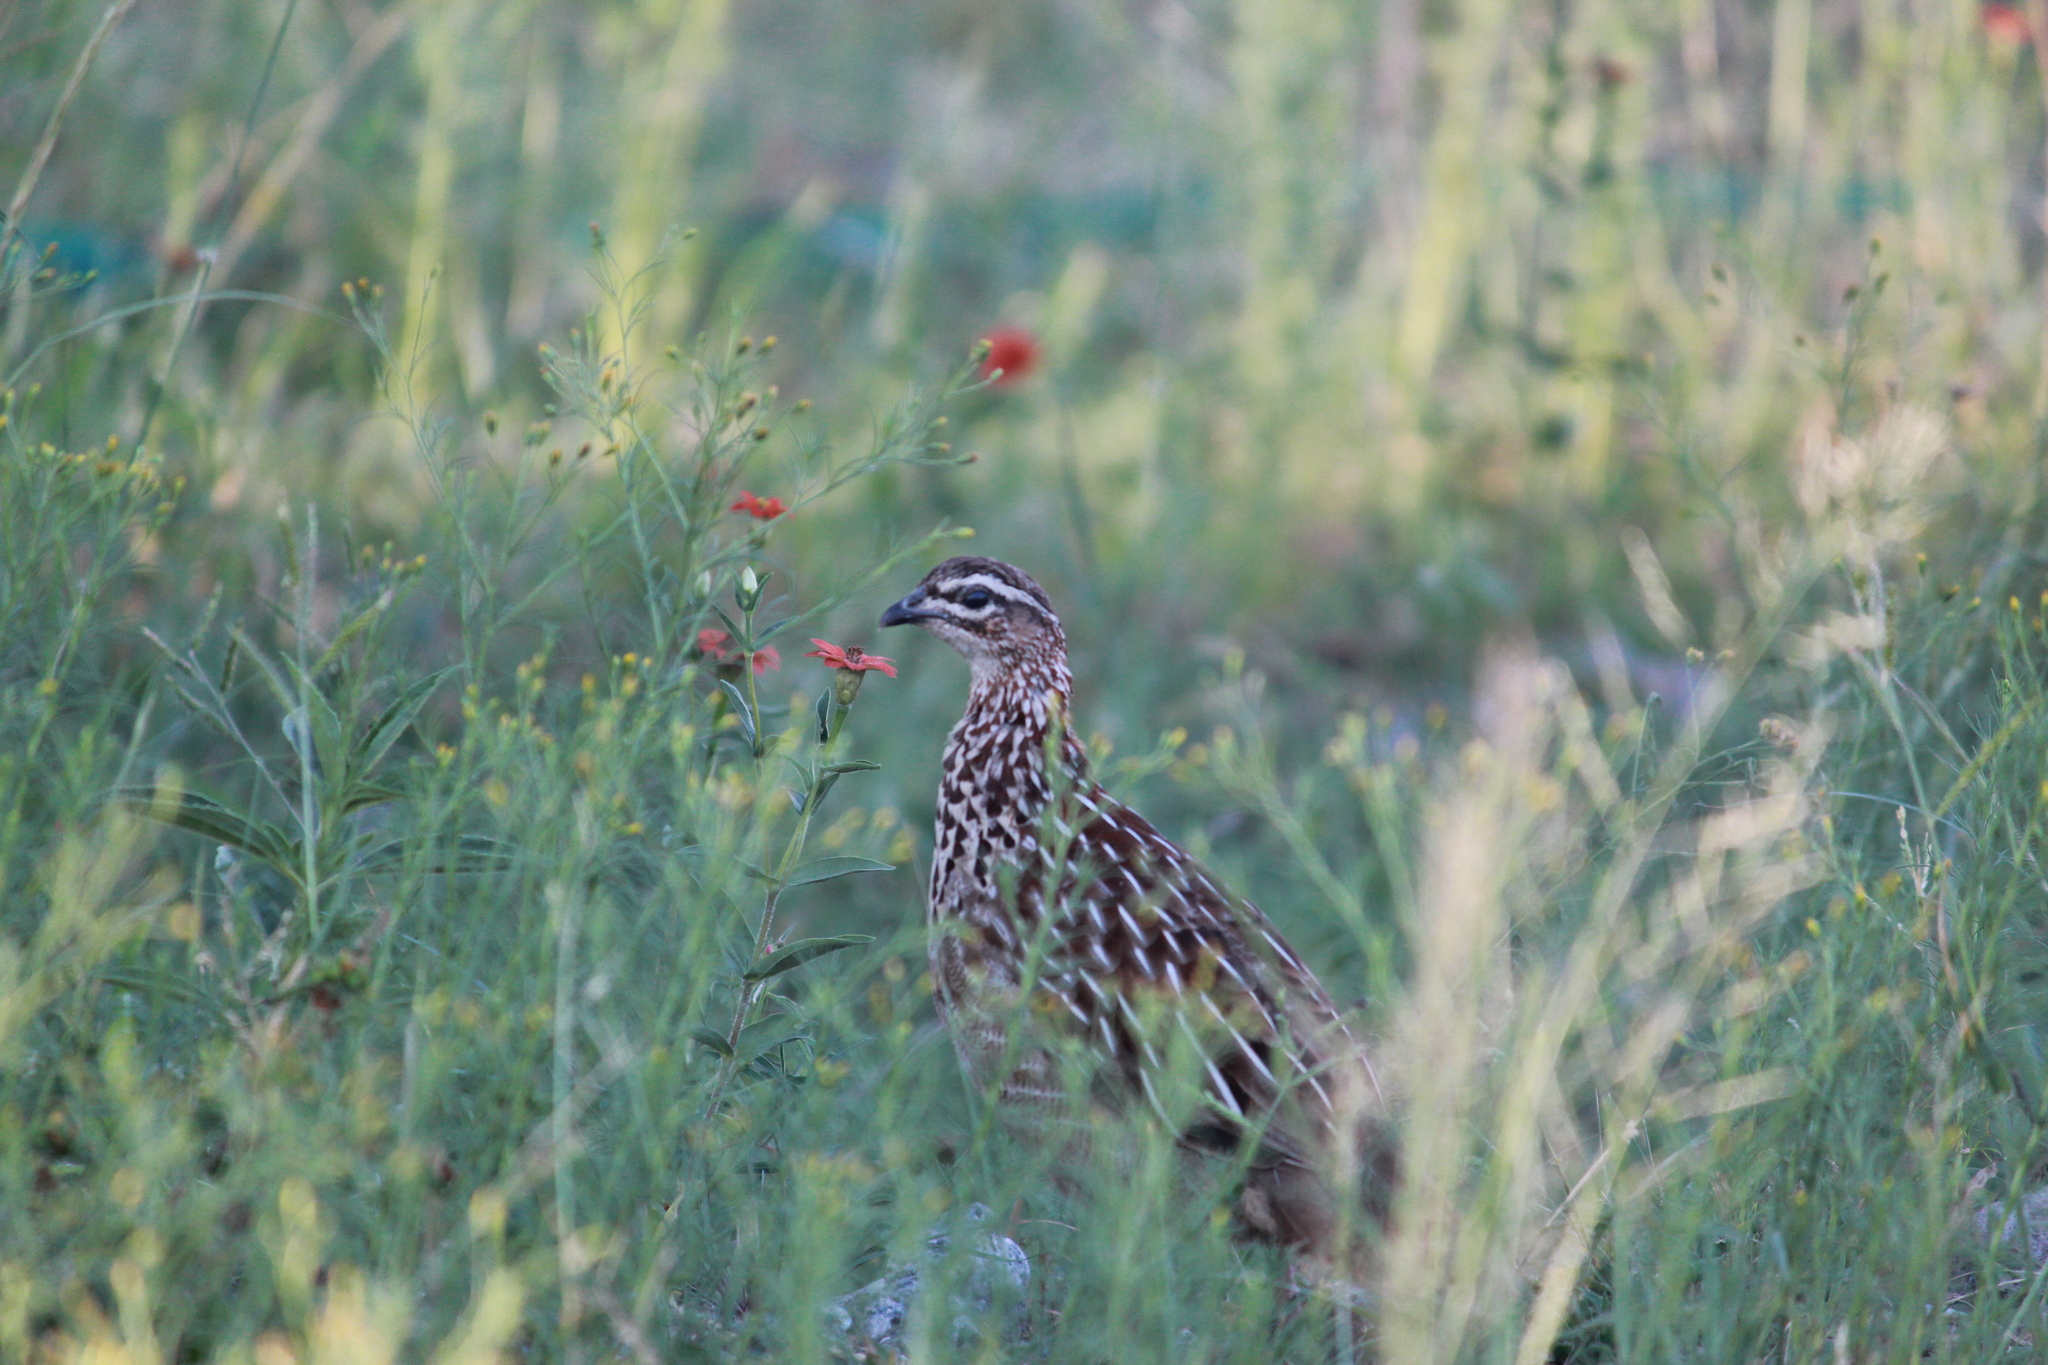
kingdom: Animalia
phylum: Chordata
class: Aves
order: Galliformes
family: Phasianidae
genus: Ortygornis
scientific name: Ortygornis sephaena
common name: Crested francolin
